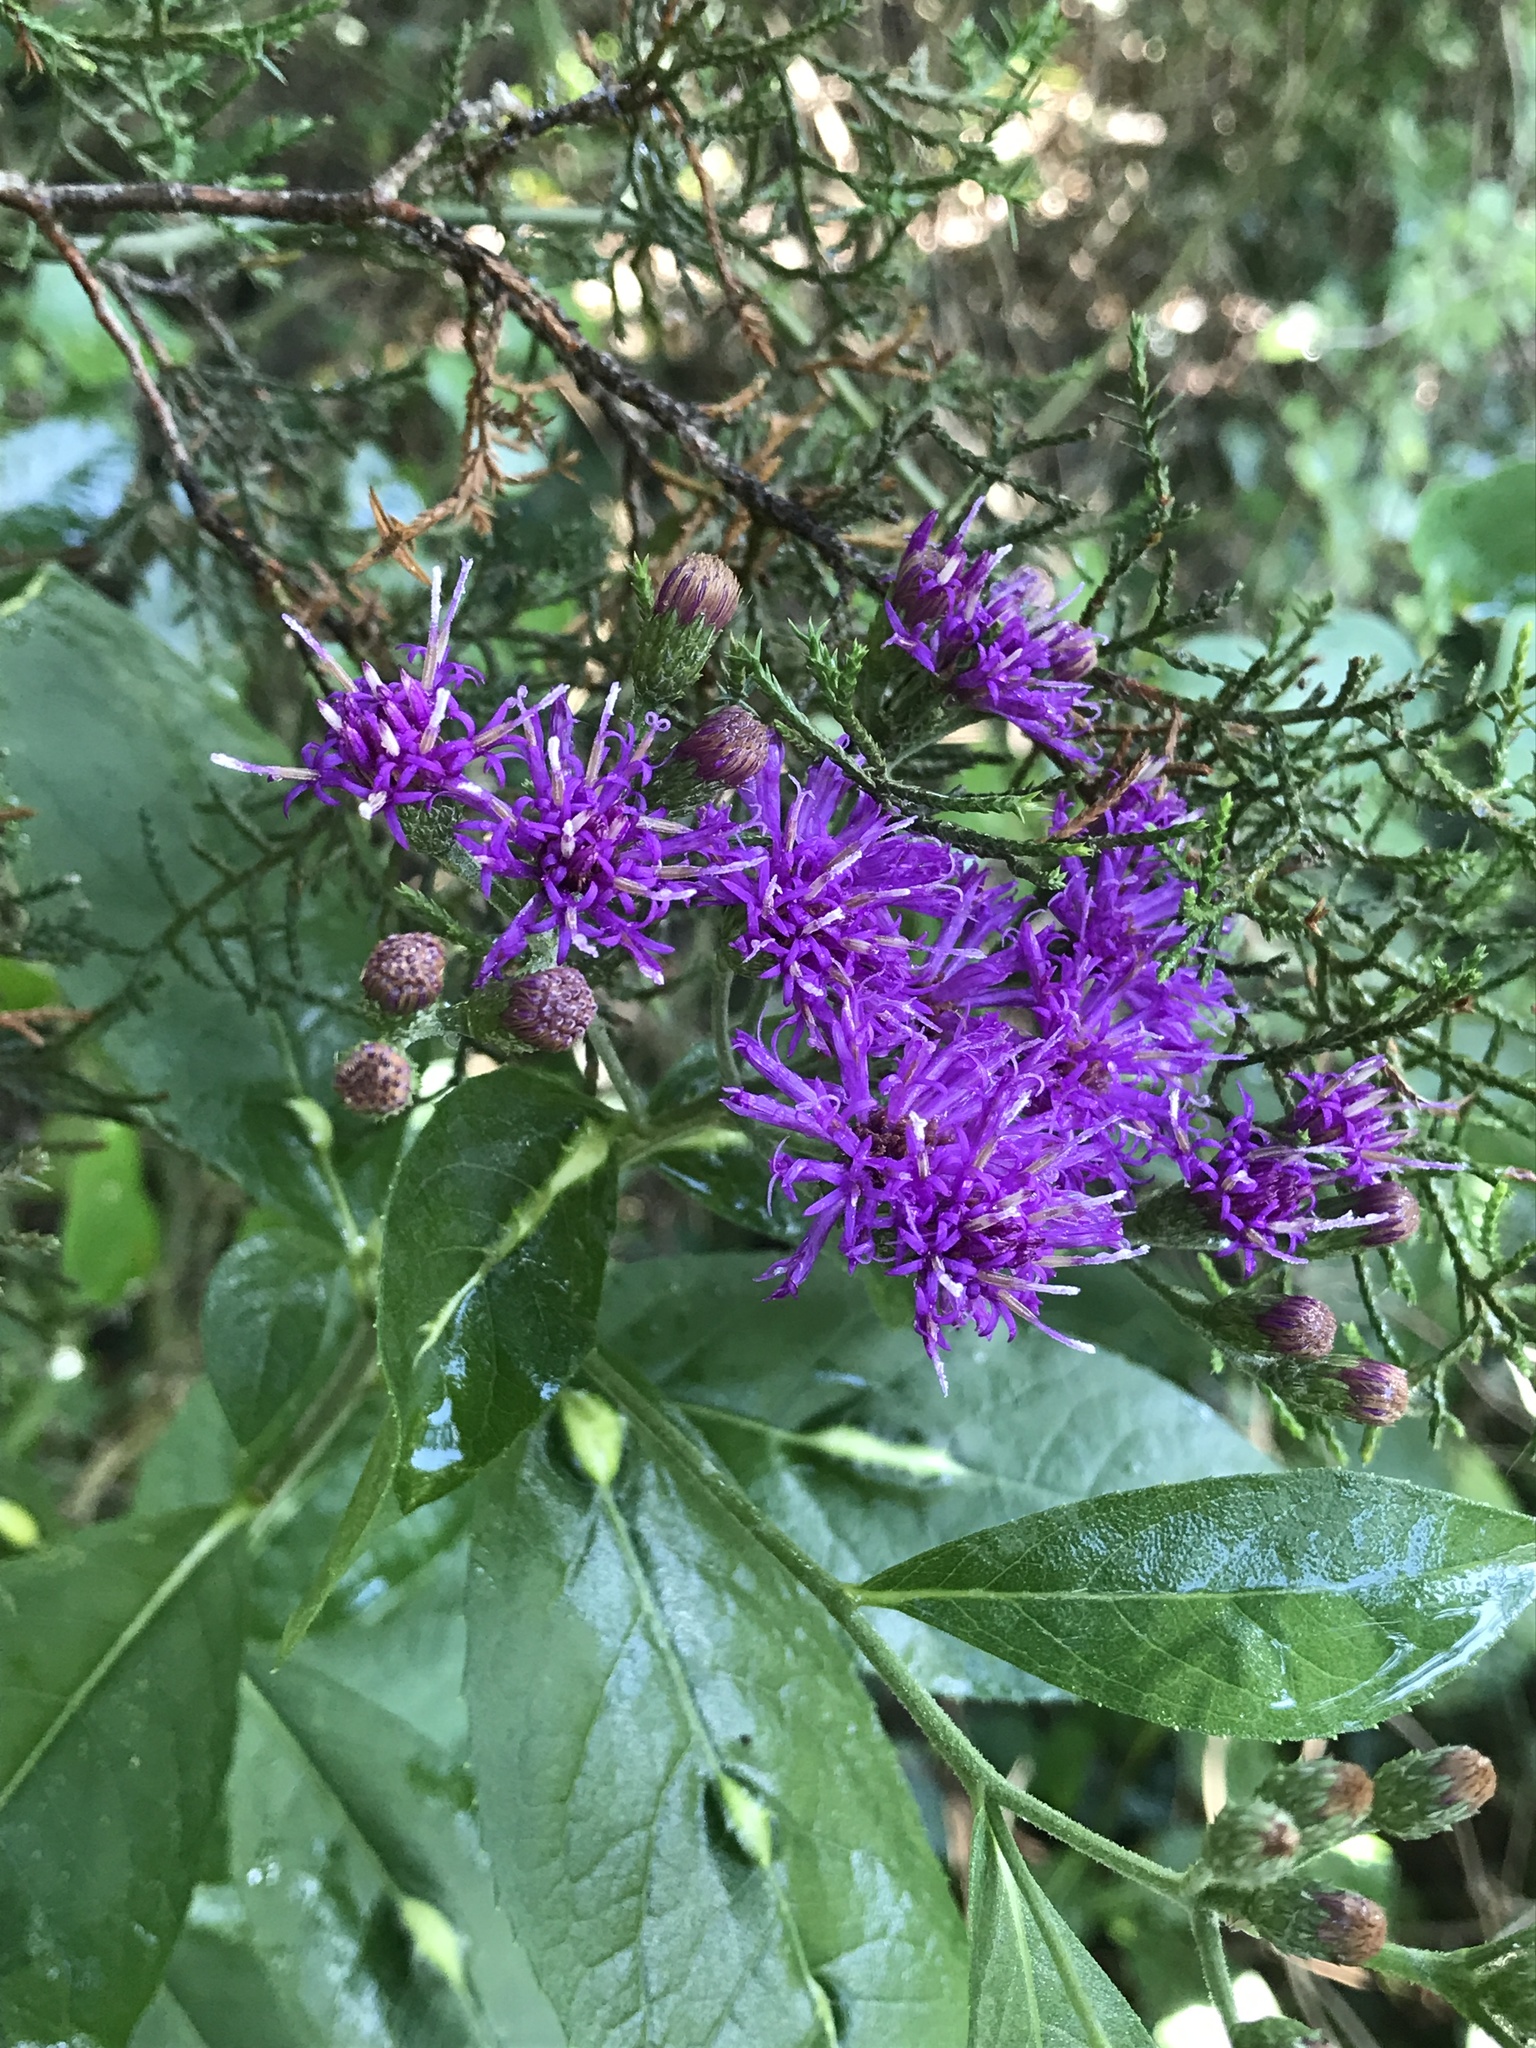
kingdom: Plantae
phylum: Tracheophyta
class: Magnoliopsida
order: Asterales
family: Asteraceae
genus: Vernonia
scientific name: Vernonia baldwinii
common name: Western ironweed
